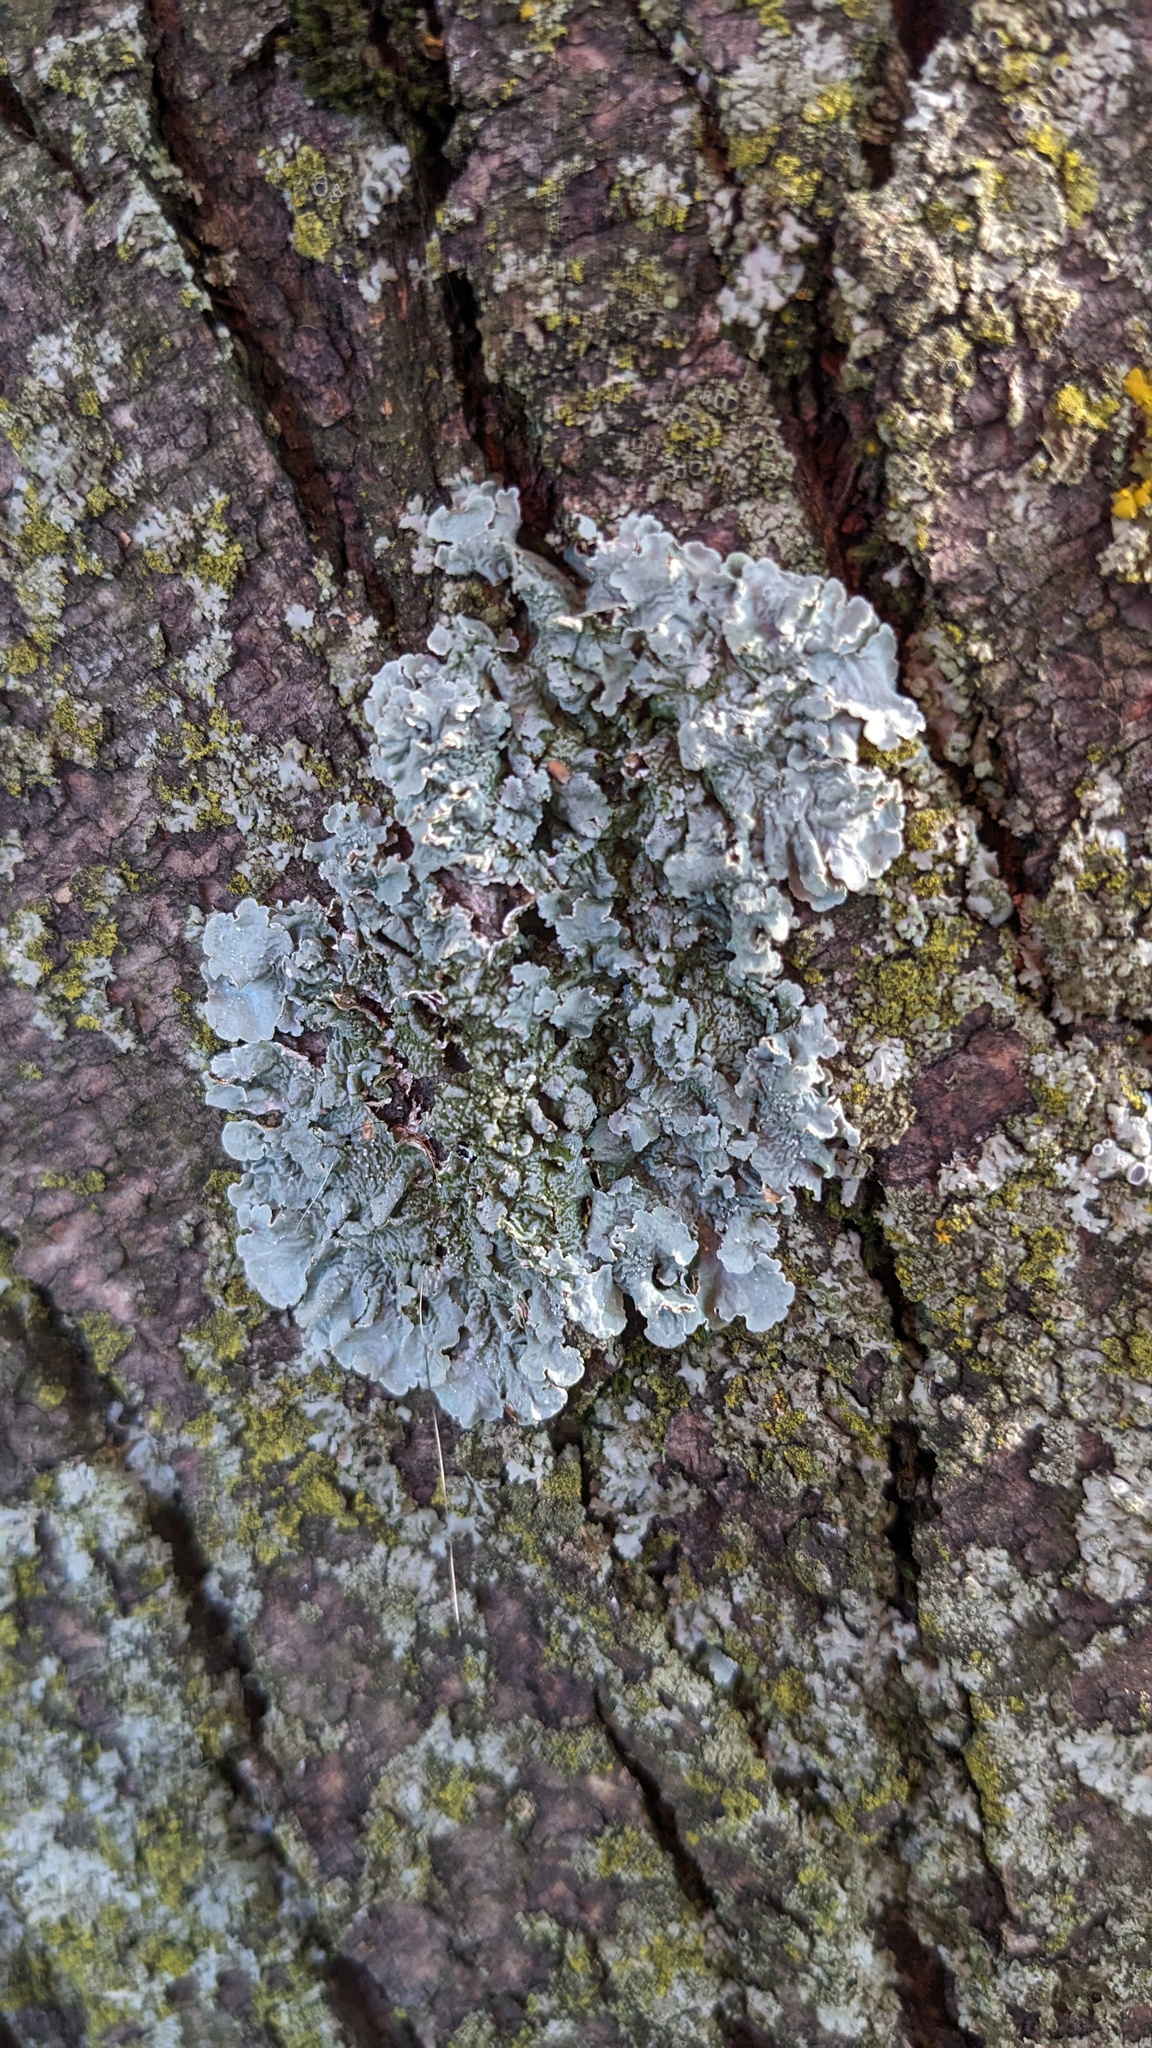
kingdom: Fungi
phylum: Ascomycota
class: Lecanoromycetes
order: Lecanorales
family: Parmeliaceae
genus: Punctelia
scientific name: Punctelia bolliana
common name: Eastern speckled shield lichen
